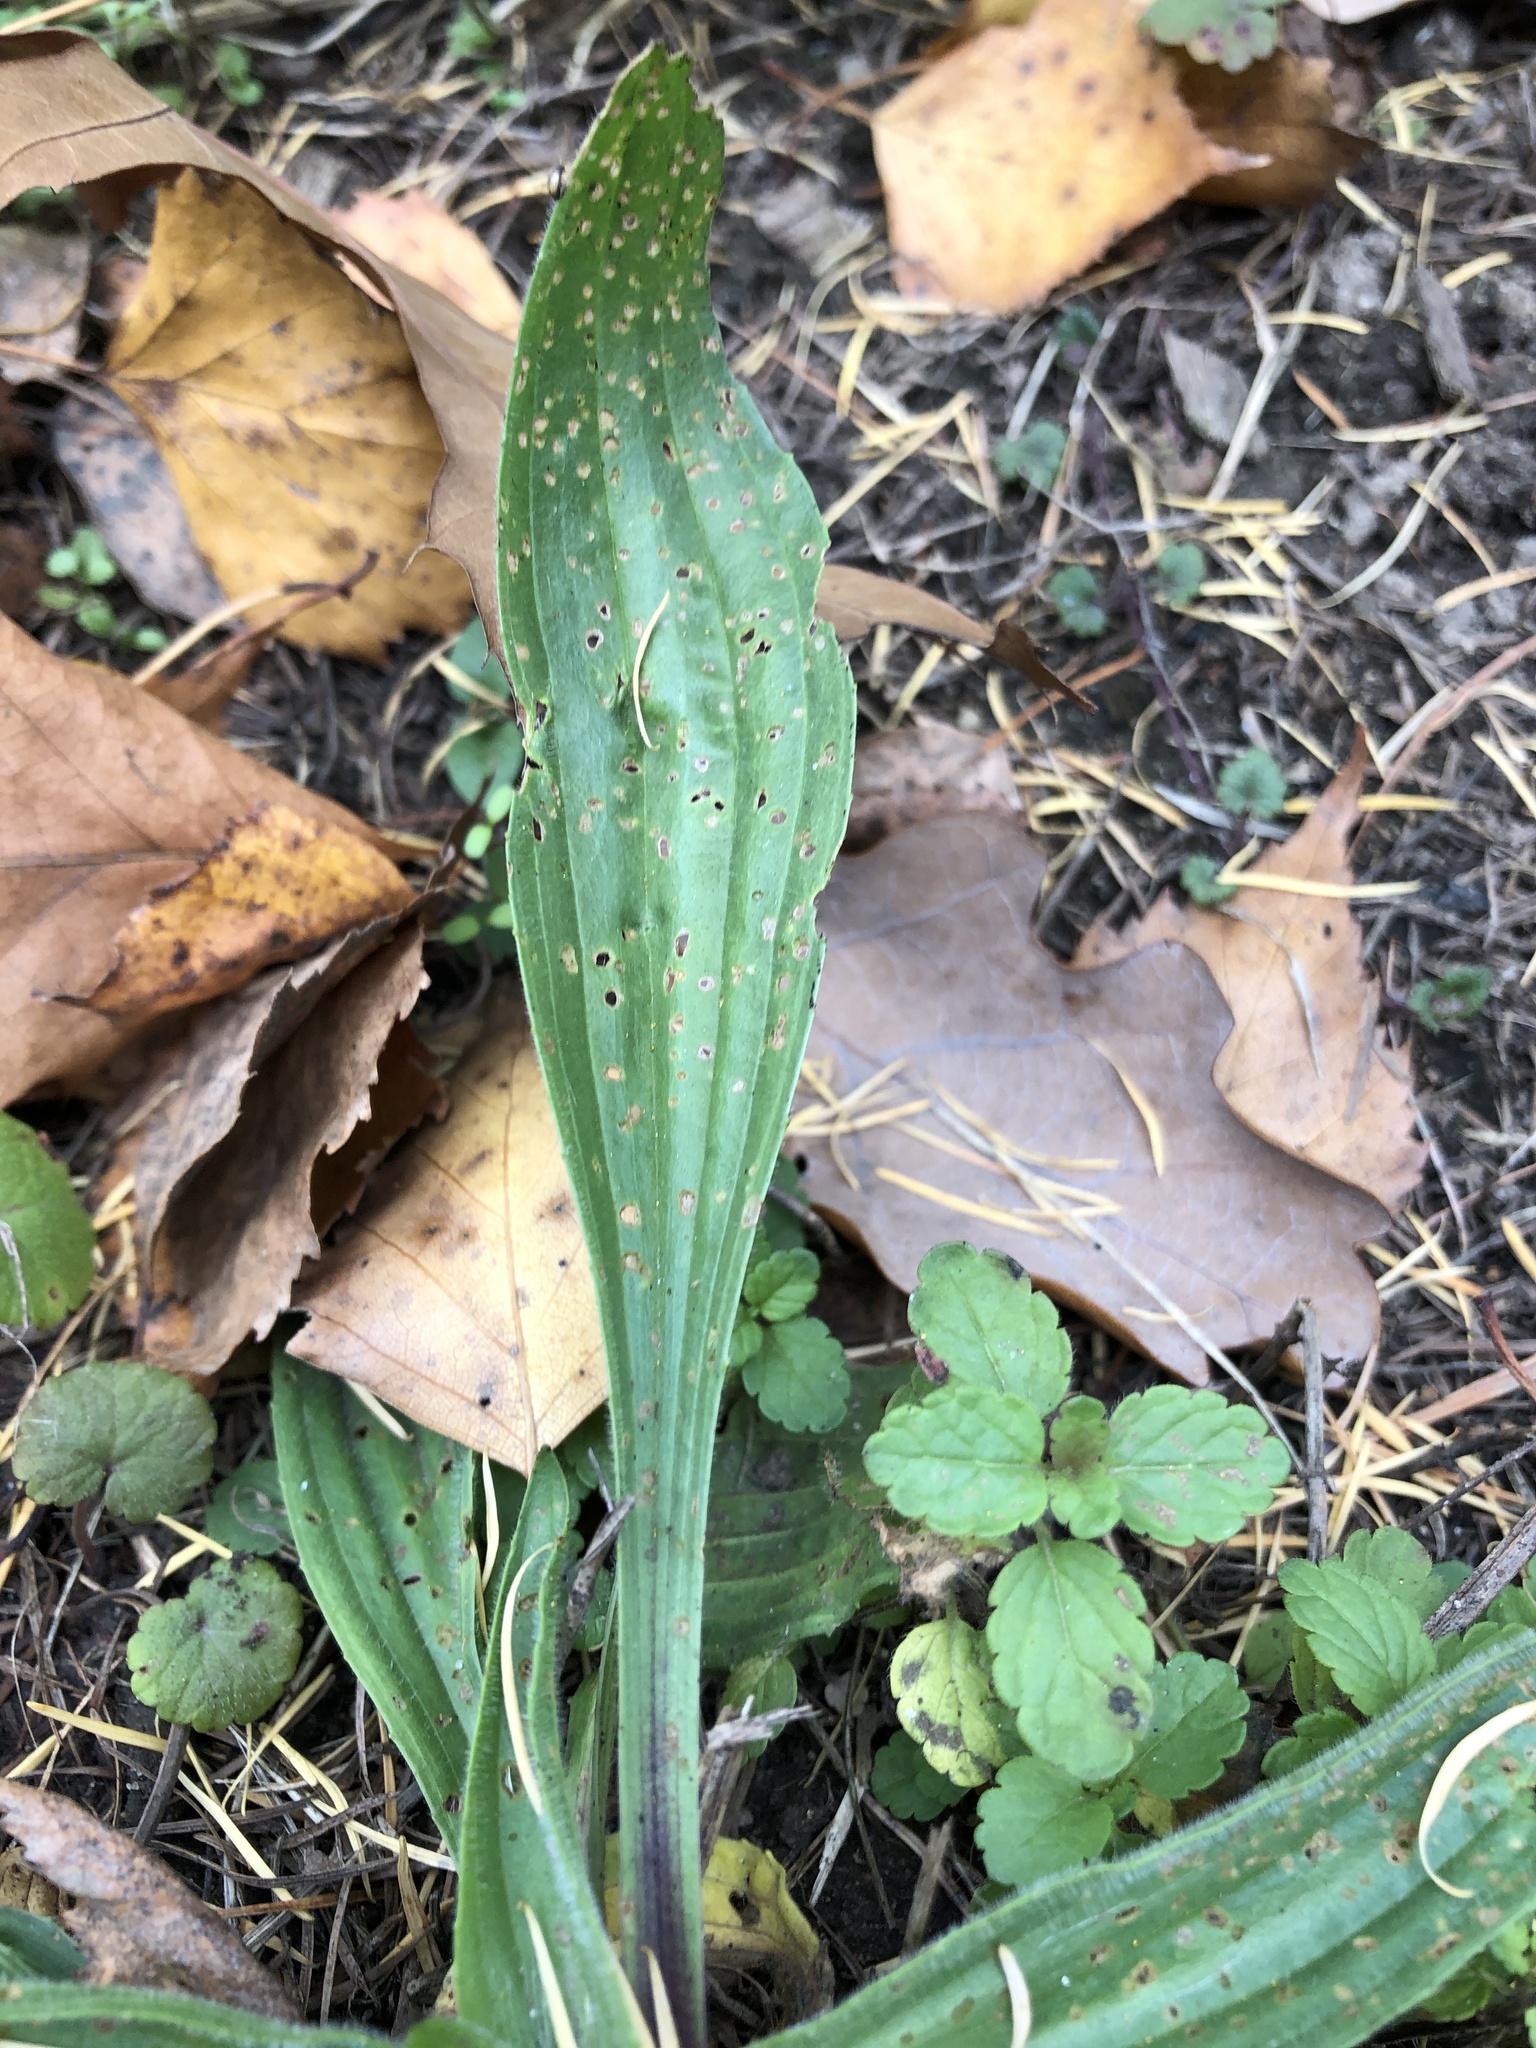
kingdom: Plantae
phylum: Tracheophyta
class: Magnoliopsida
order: Lamiales
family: Plantaginaceae
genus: Plantago
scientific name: Plantago lanceolata
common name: Ribwort plantain
